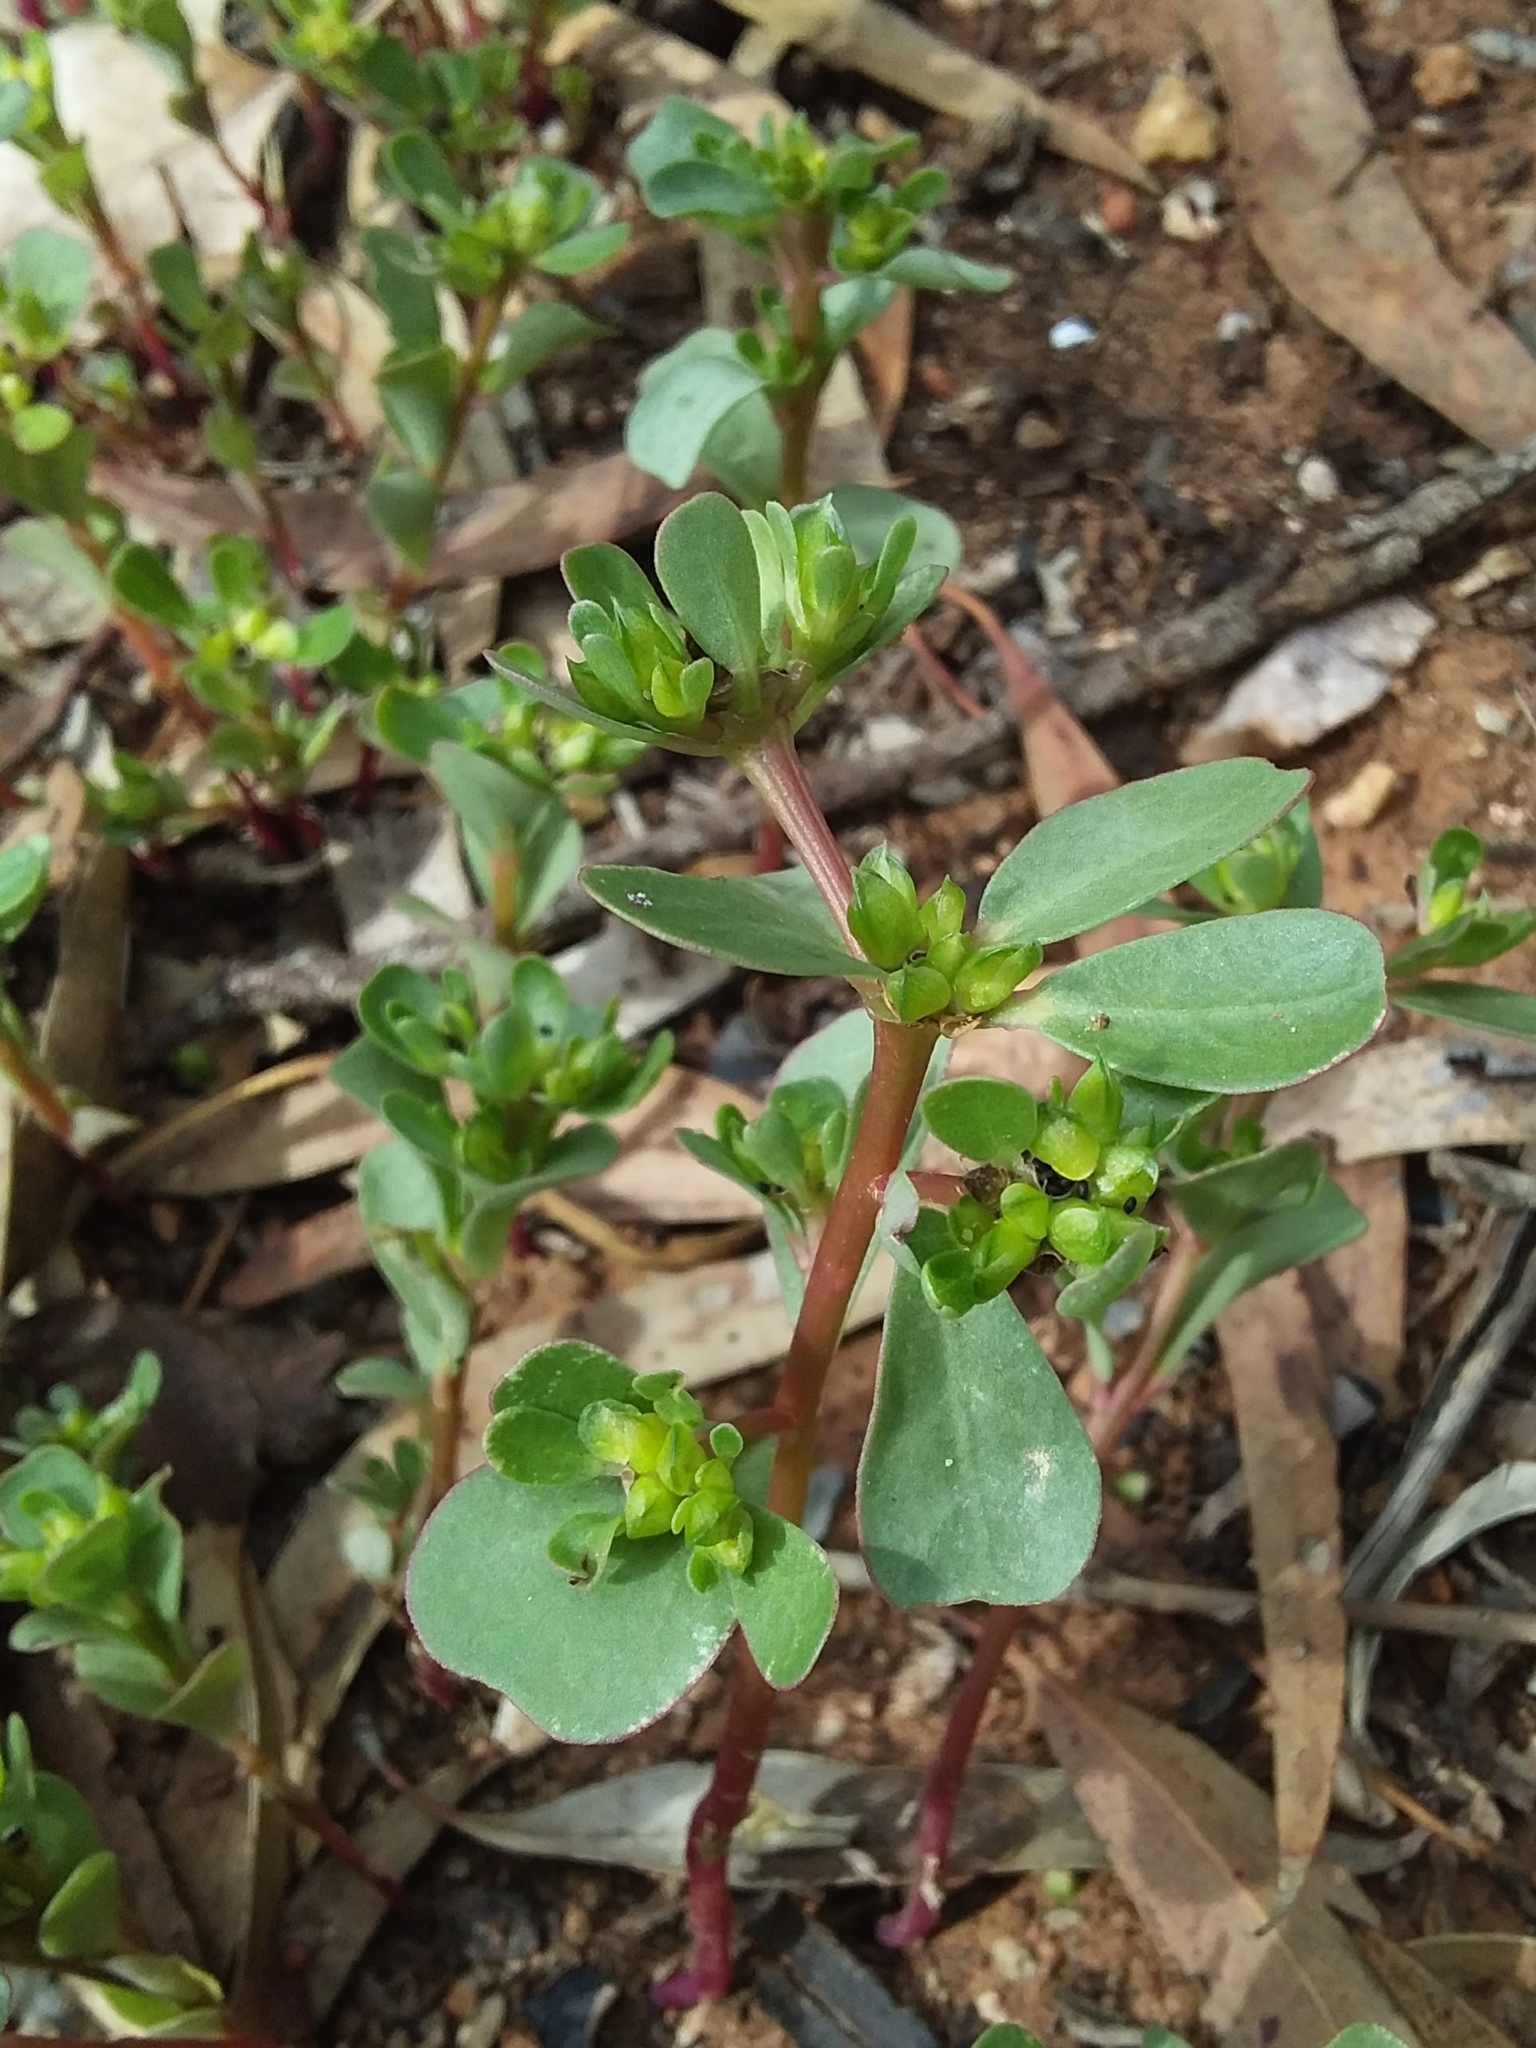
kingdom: Plantae
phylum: Tracheophyta
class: Magnoliopsida
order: Caryophyllales
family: Portulacaceae
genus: Portulaca
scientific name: Portulaca oleracea
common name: Common purslane
